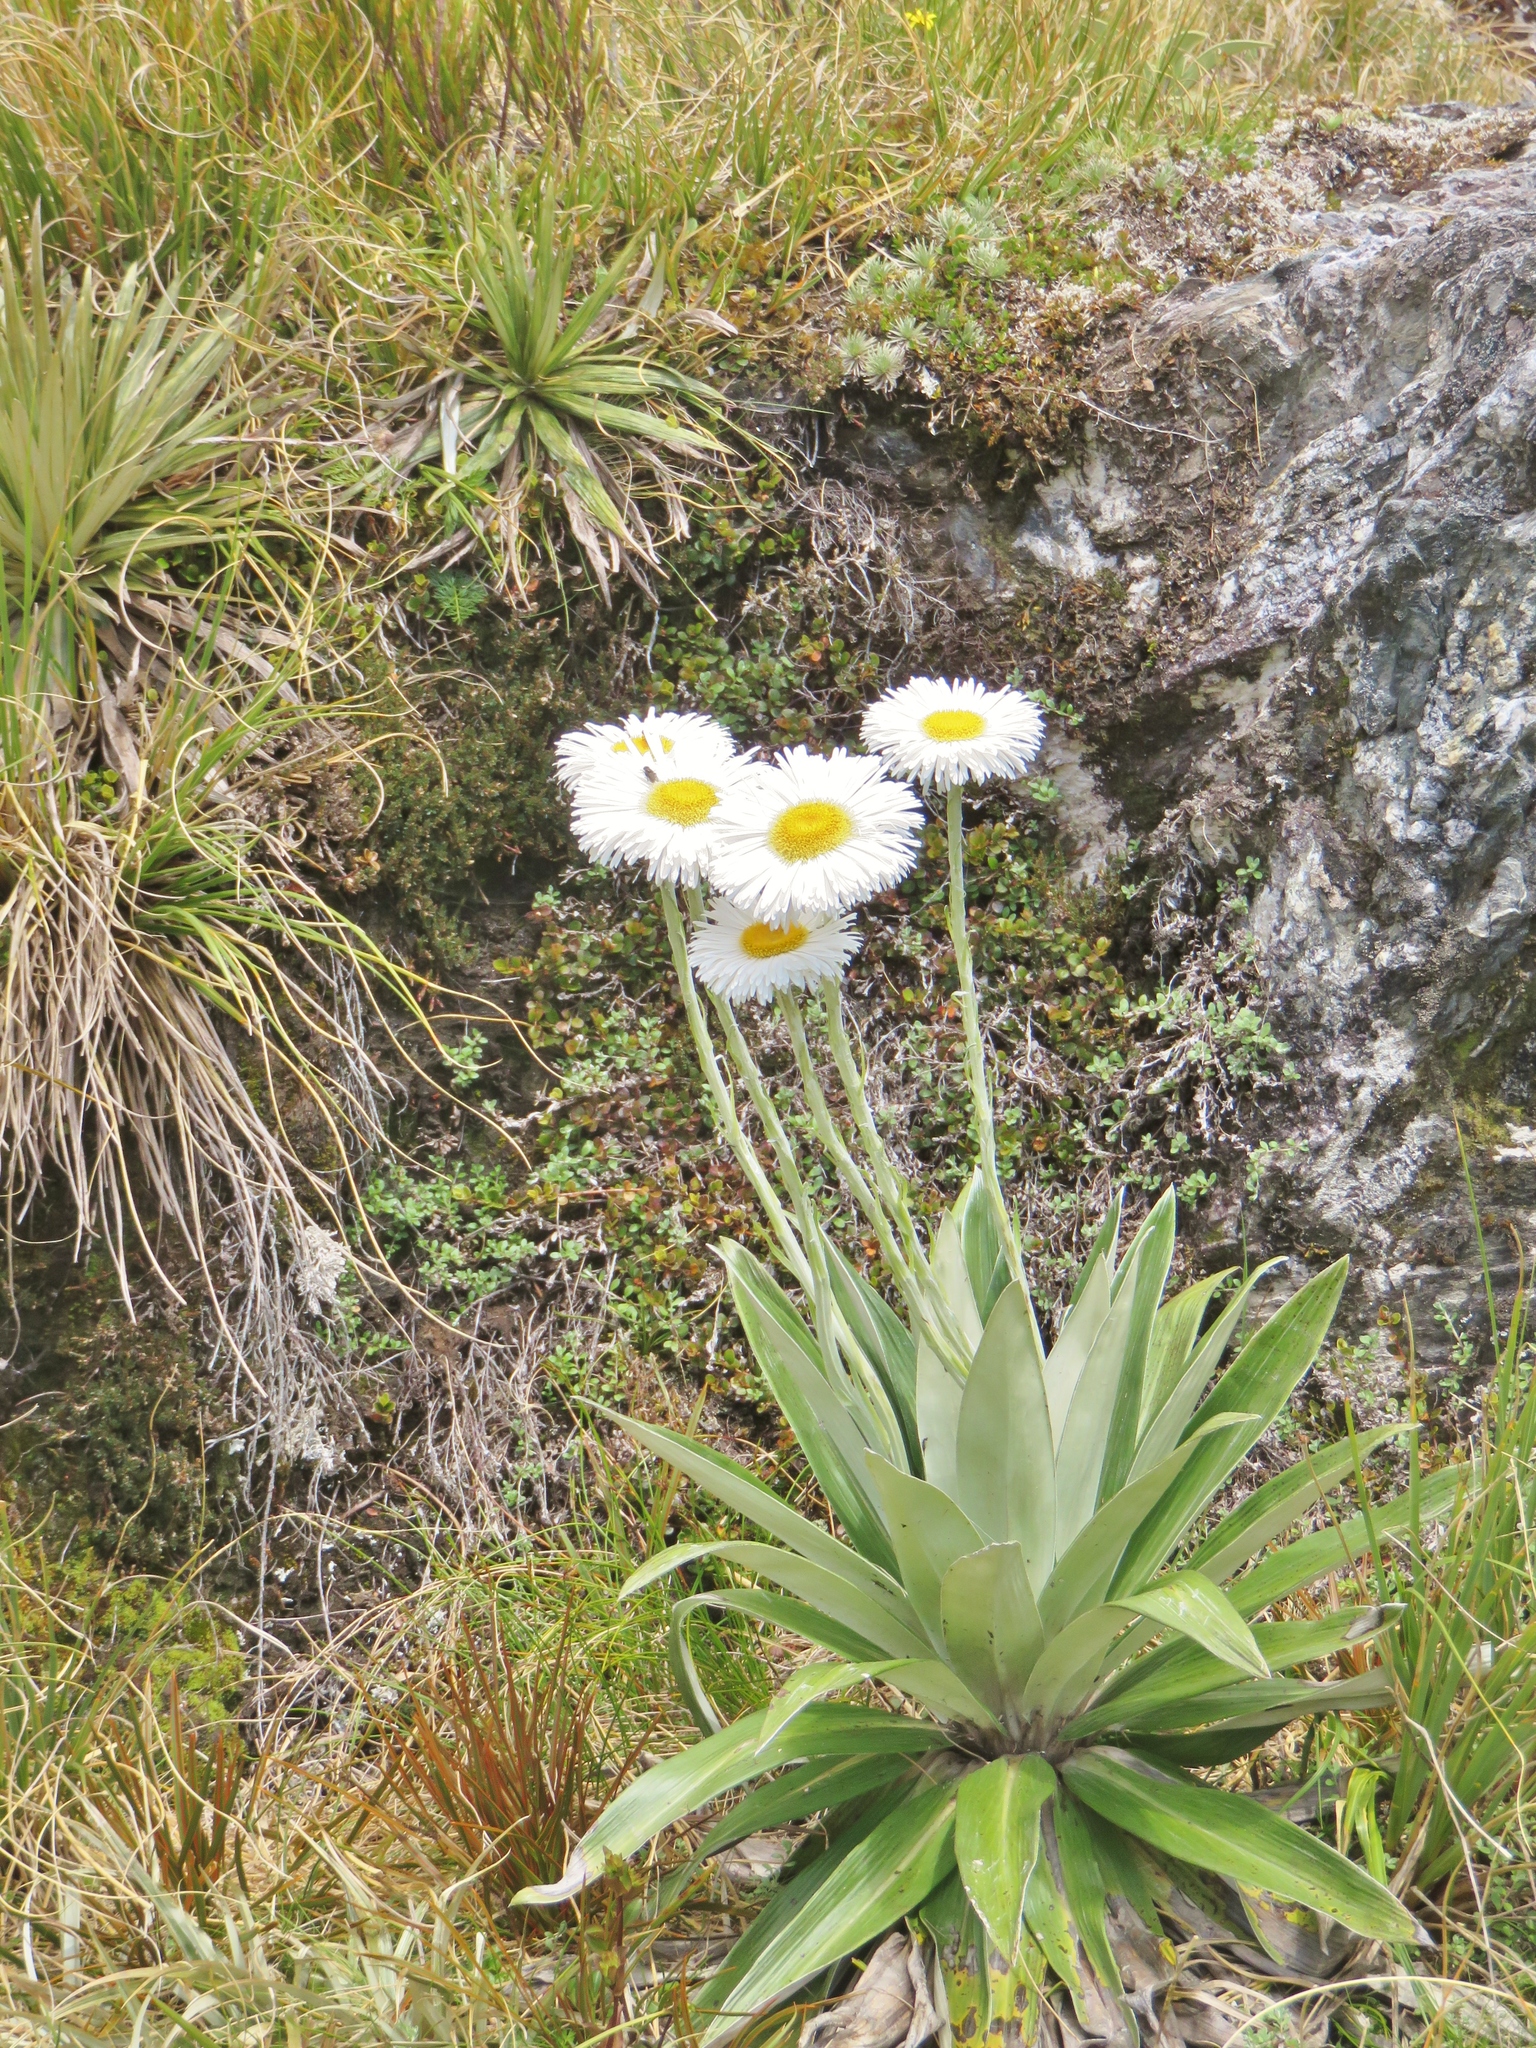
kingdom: Plantae
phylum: Tracheophyta
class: Magnoliopsida
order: Asterales
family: Asteraceae
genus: Celmisia
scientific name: Celmisia semicordata
